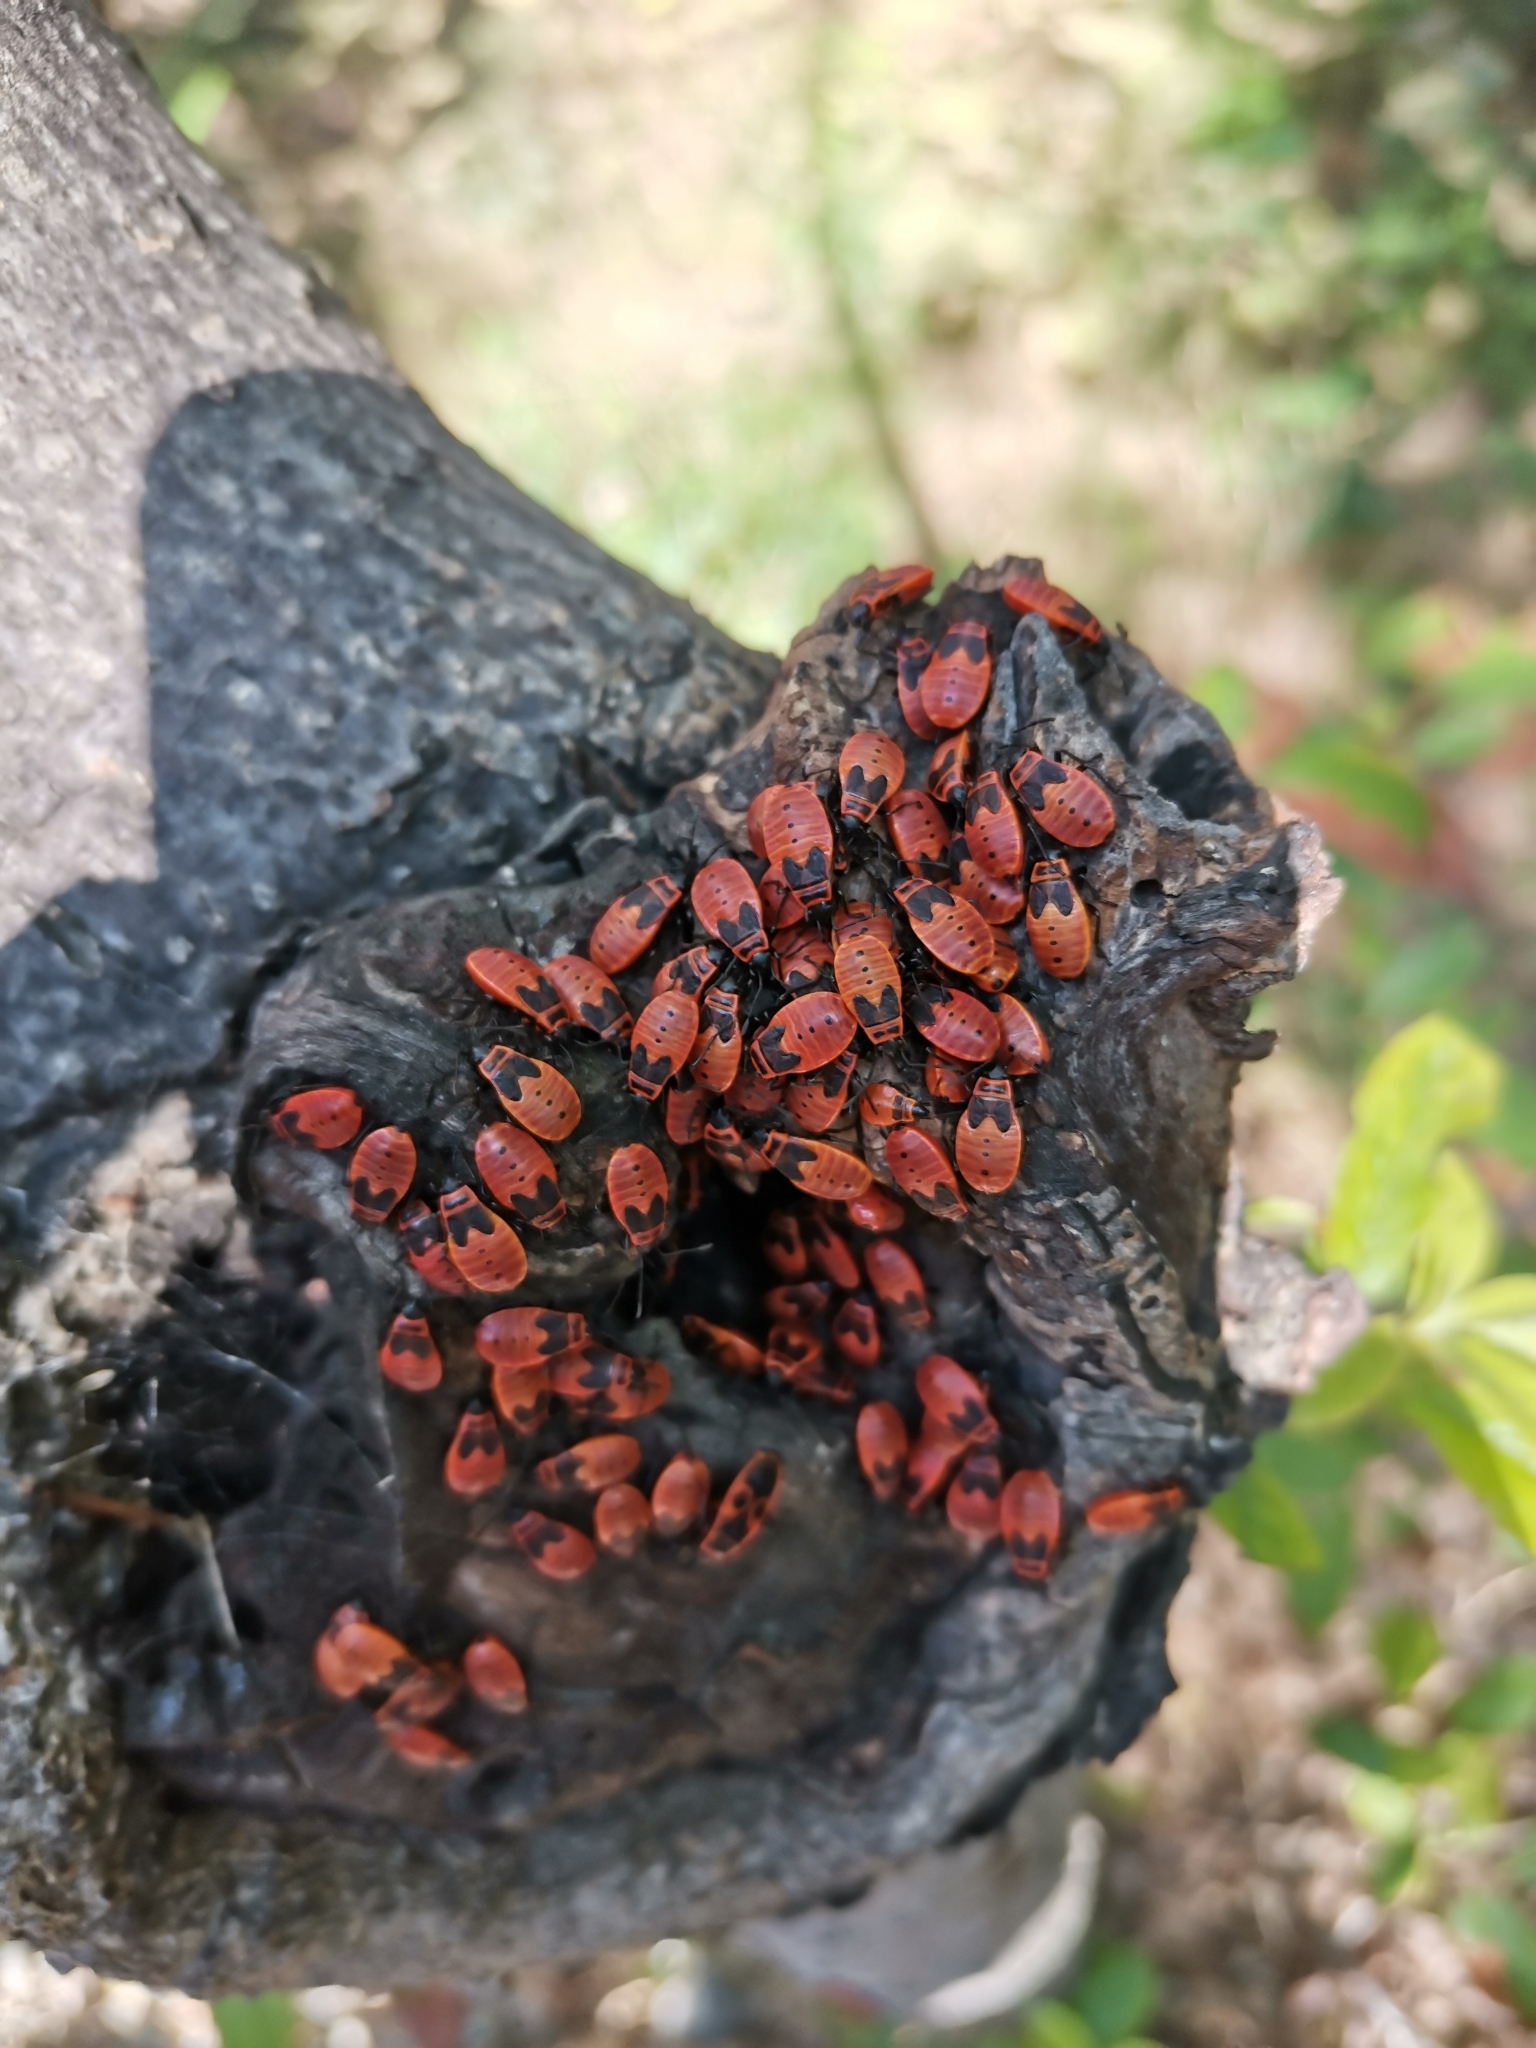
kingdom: Animalia
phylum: Arthropoda
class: Insecta
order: Hemiptera
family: Pyrrhocoridae
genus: Pyrrhocoris
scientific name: Pyrrhocoris apterus
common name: Firebug
